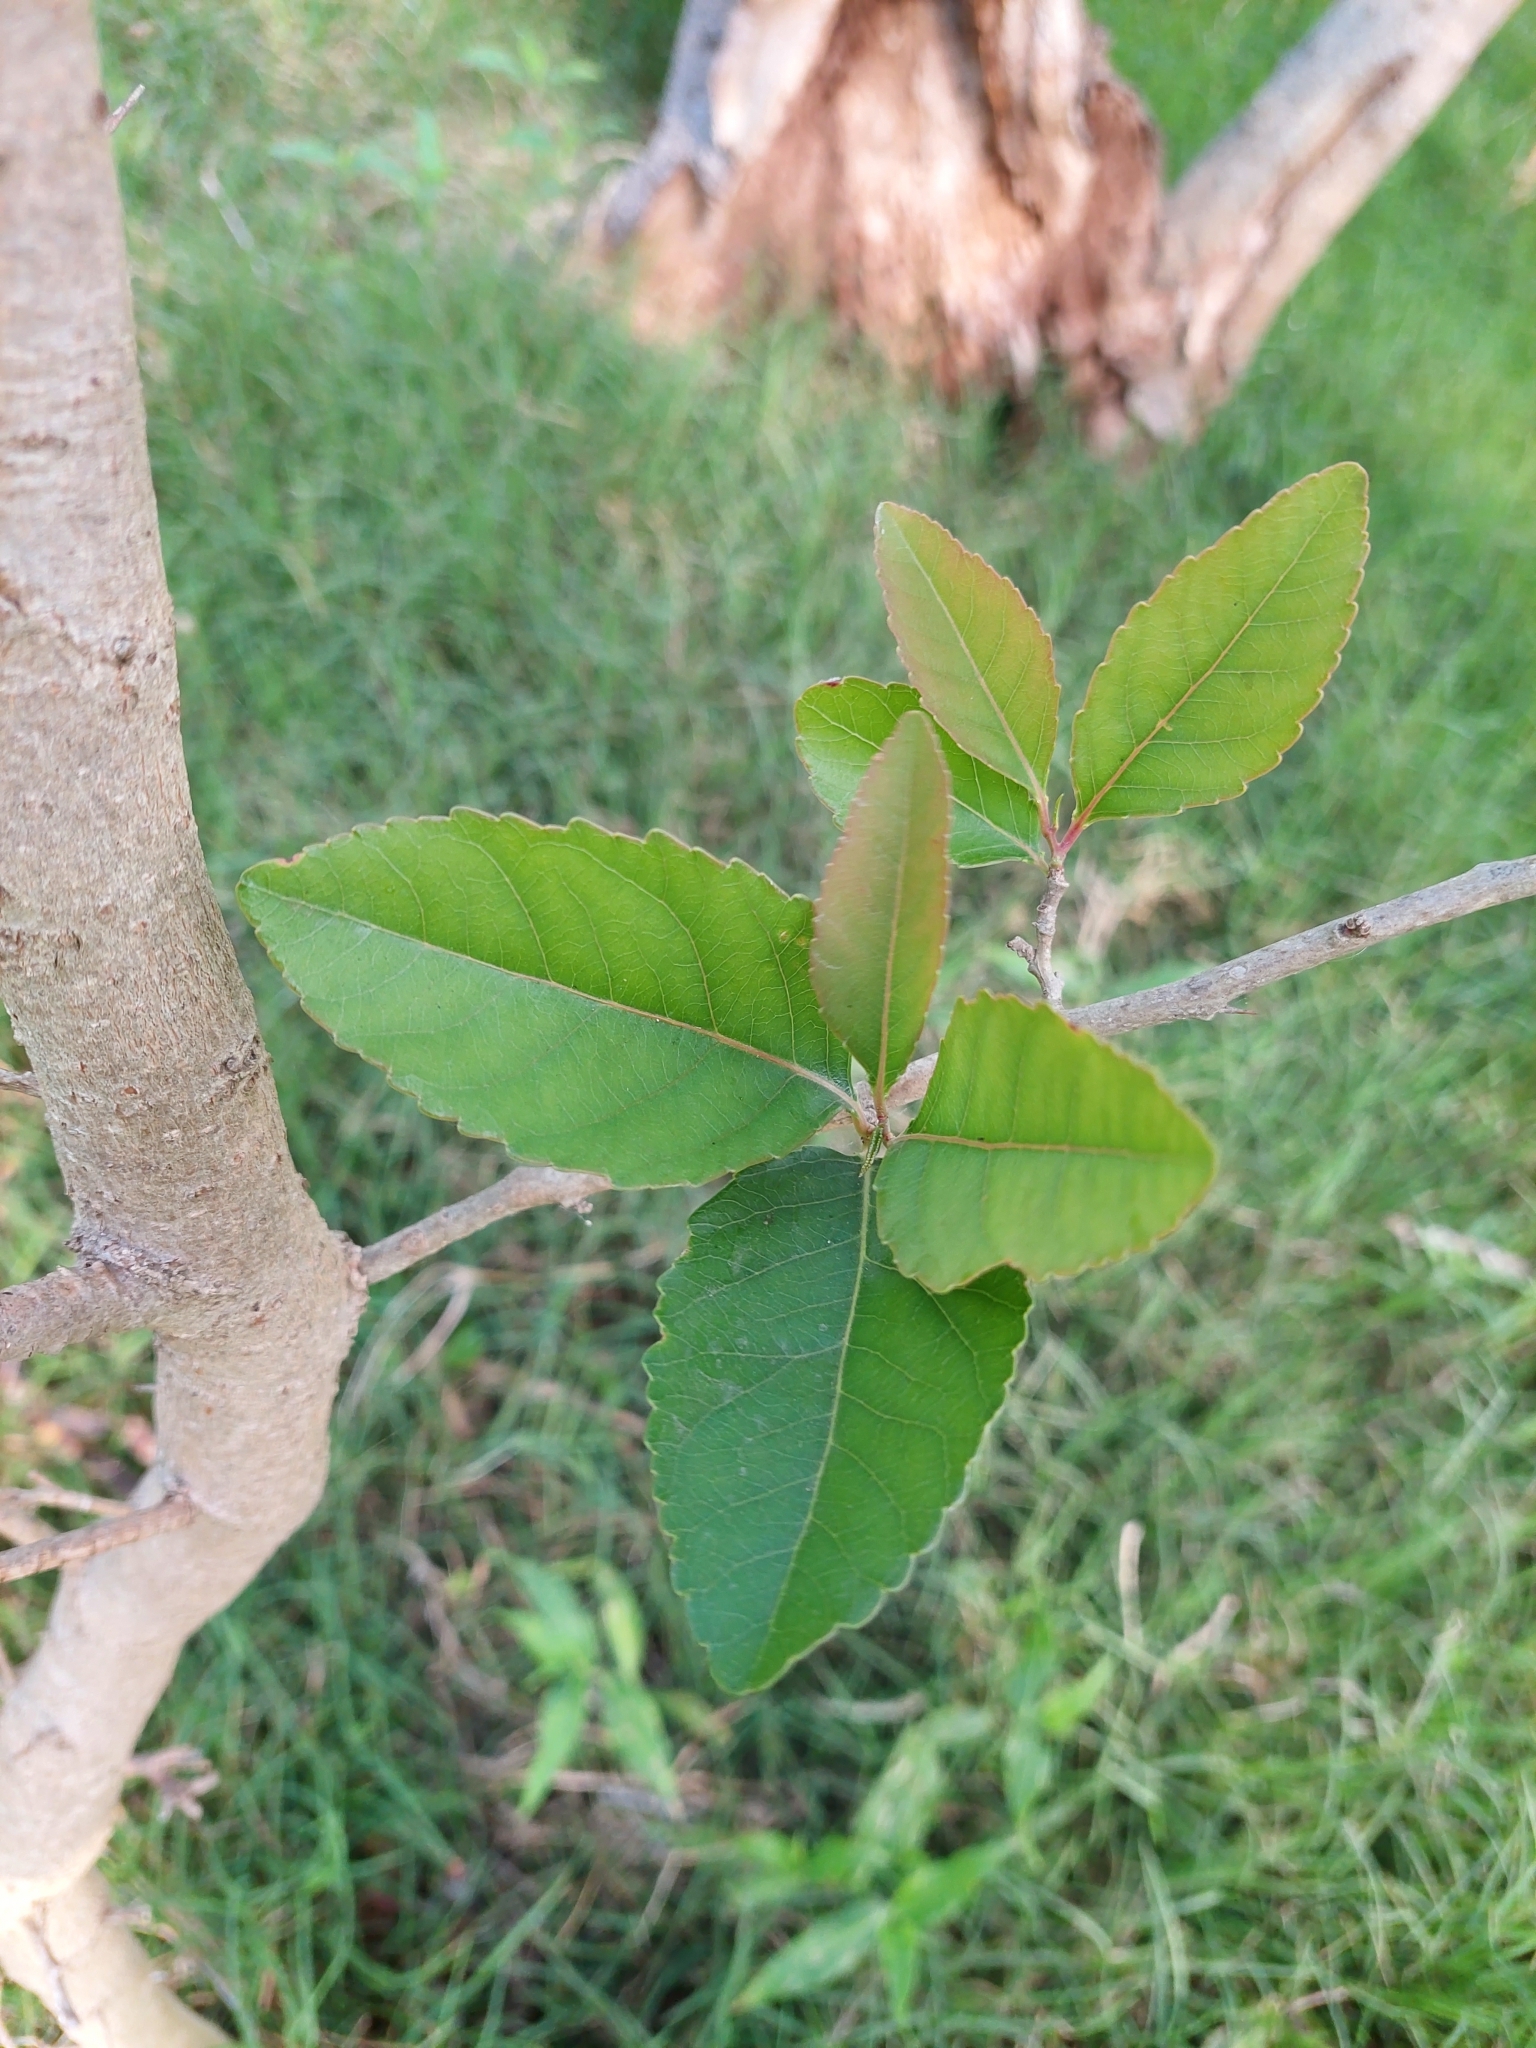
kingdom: Plantae
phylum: Tracheophyta
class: Magnoliopsida
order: Malpighiales
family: Salicaceae
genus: Xylosma
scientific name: Xylosma venosa
